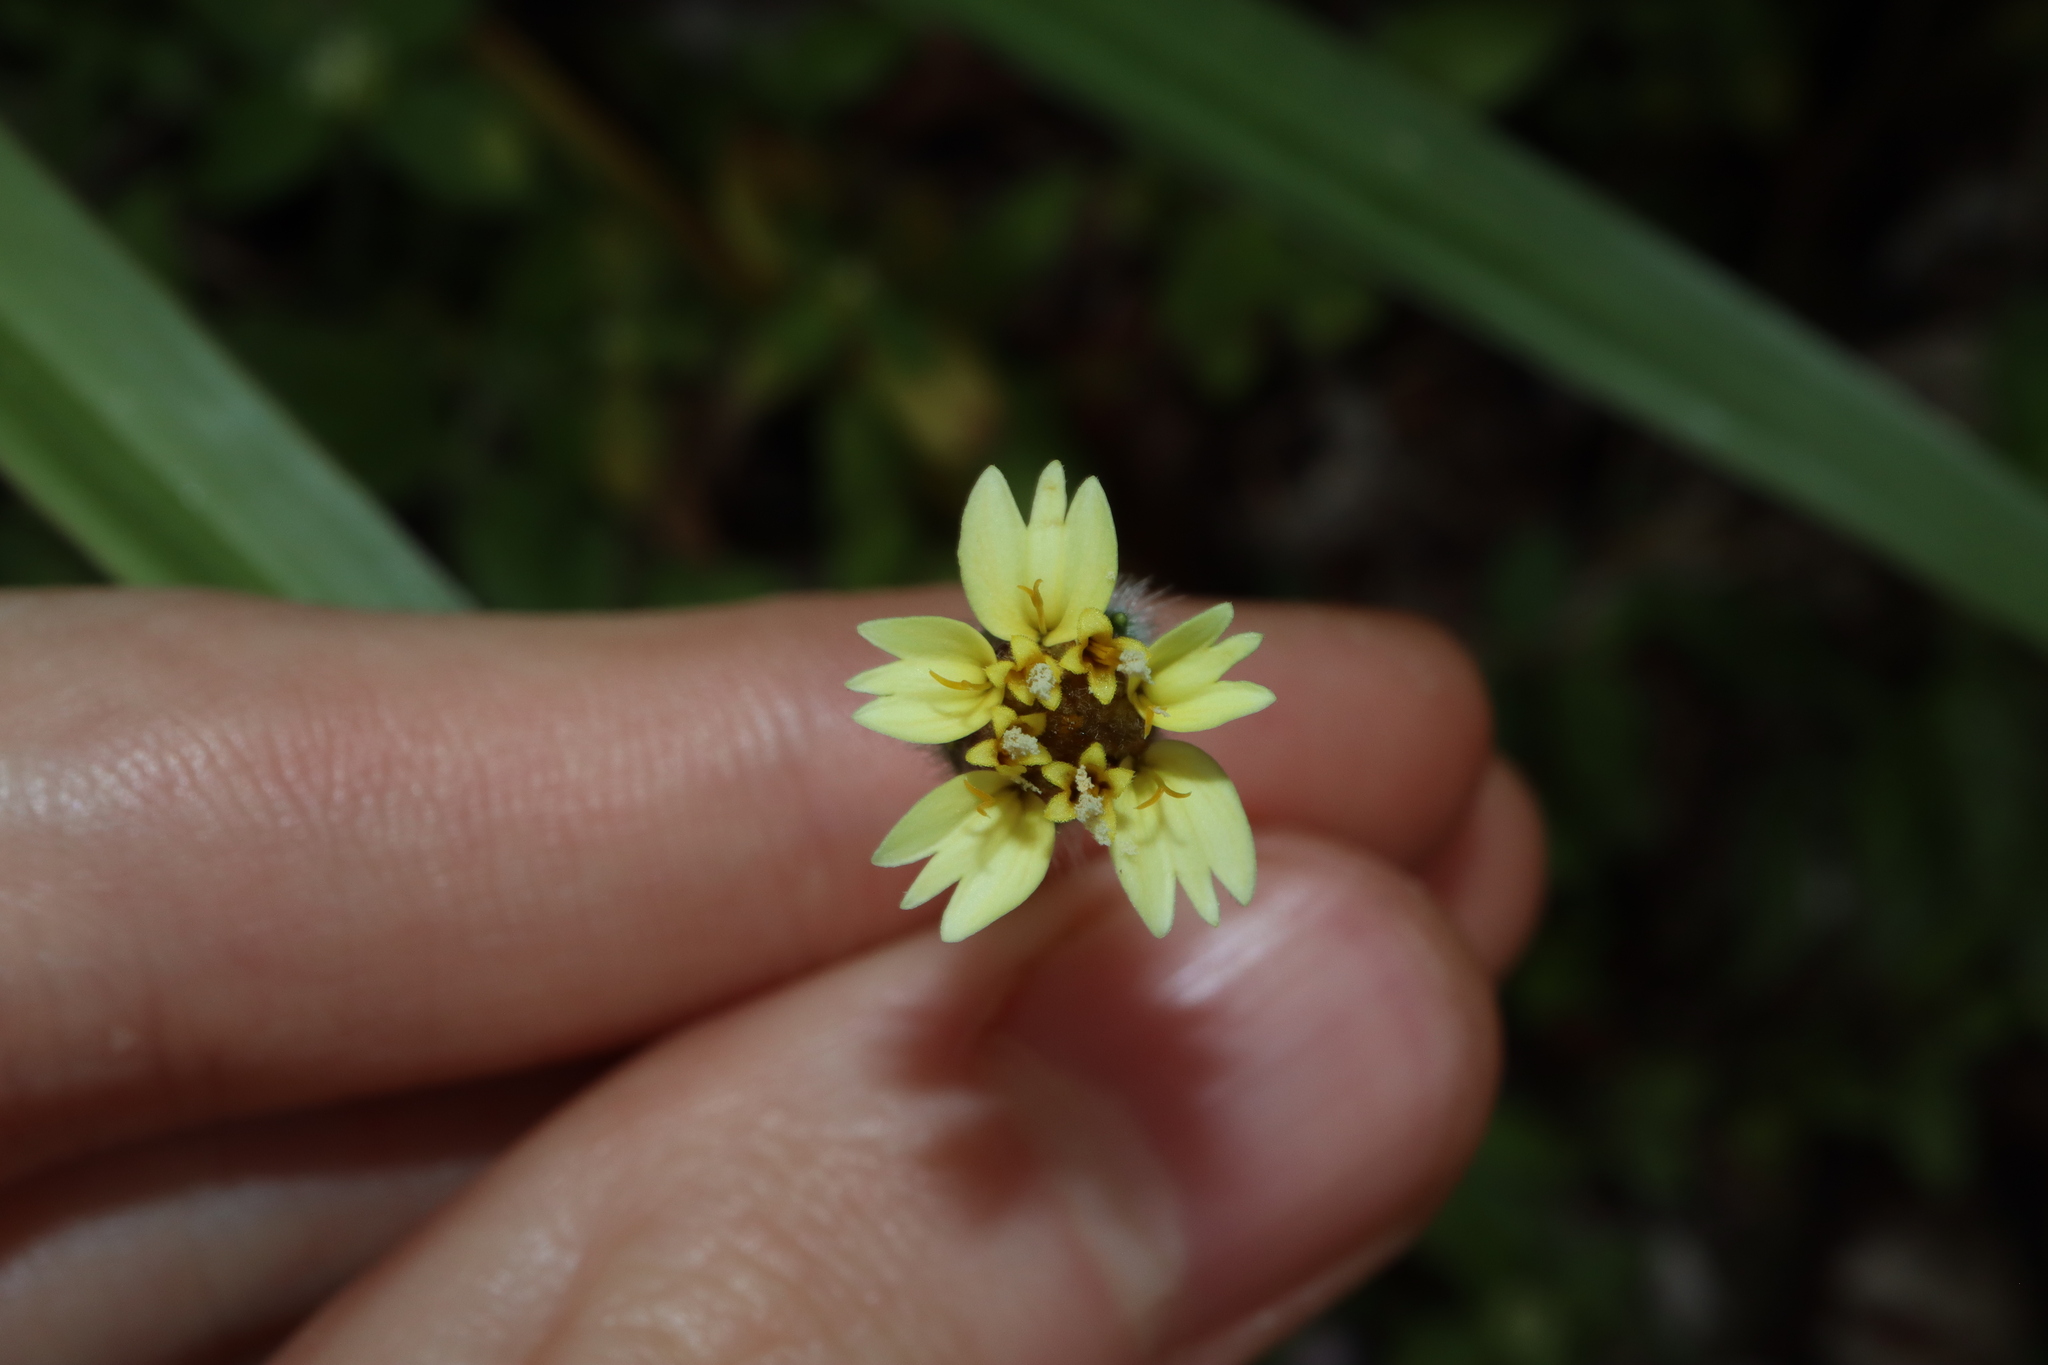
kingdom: Plantae
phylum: Tracheophyta
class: Magnoliopsida
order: Asterales
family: Asteraceae
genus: Tridax
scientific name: Tridax procumbens
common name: Coatbuttons
